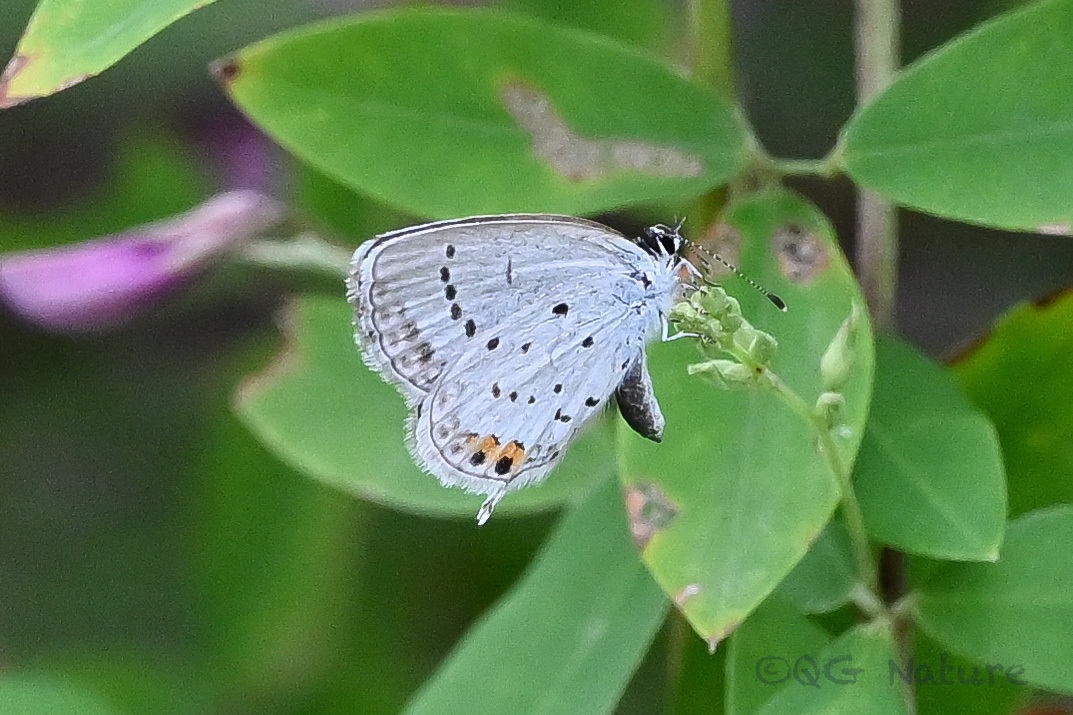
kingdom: Animalia
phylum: Arthropoda
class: Insecta
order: Lepidoptera
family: Lycaenidae
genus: Elkalyce
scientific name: Elkalyce argiades
